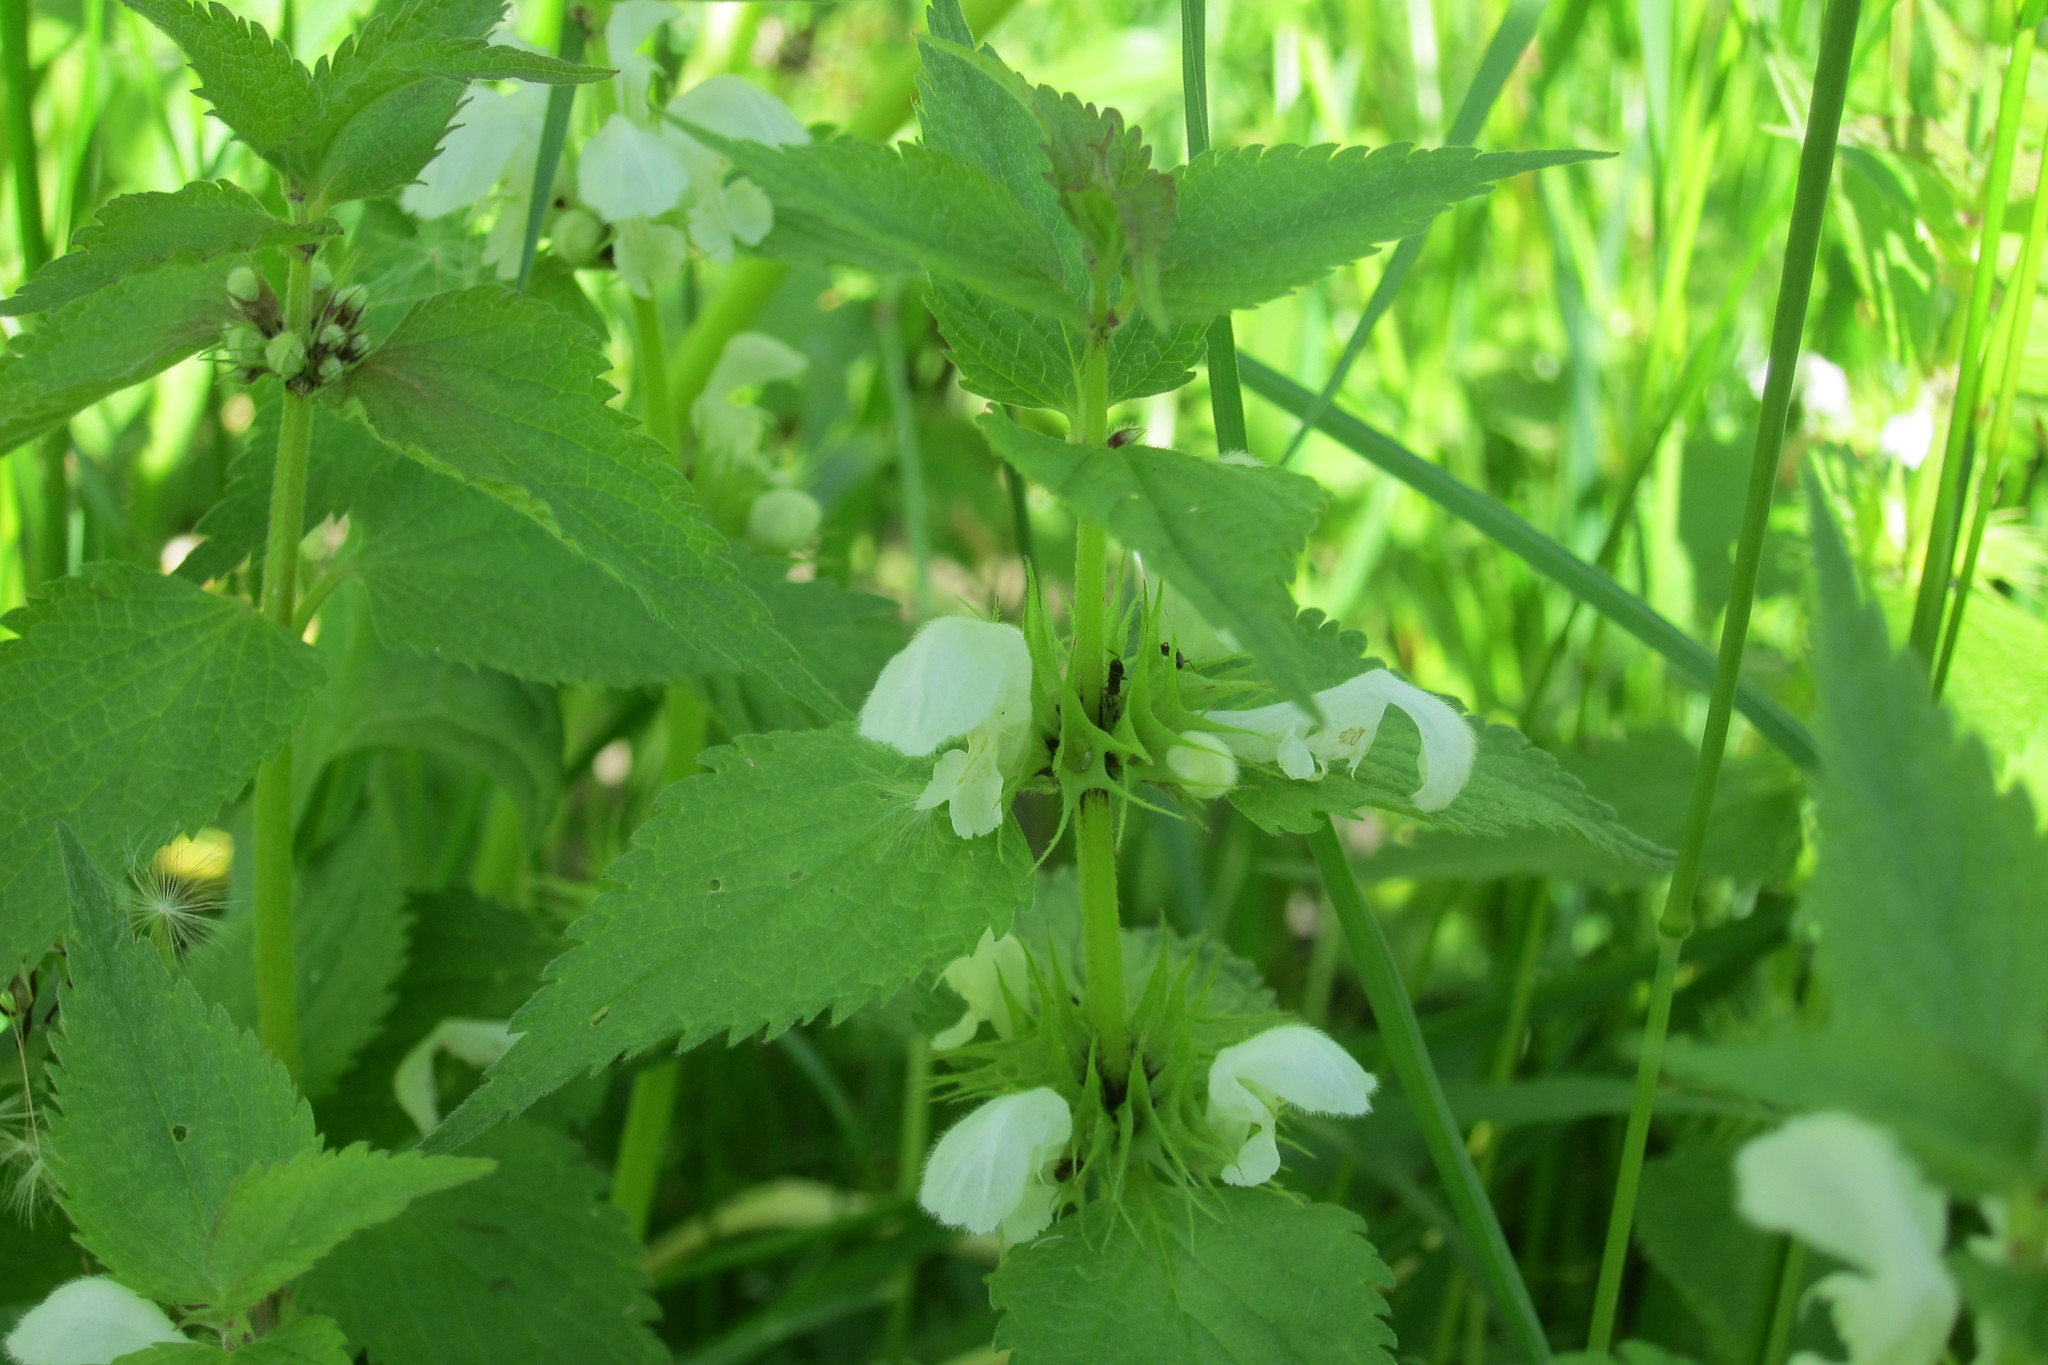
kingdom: Plantae
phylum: Tracheophyta
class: Magnoliopsida
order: Lamiales
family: Lamiaceae
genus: Lamium
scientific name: Lamium album
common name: White dead-nettle
